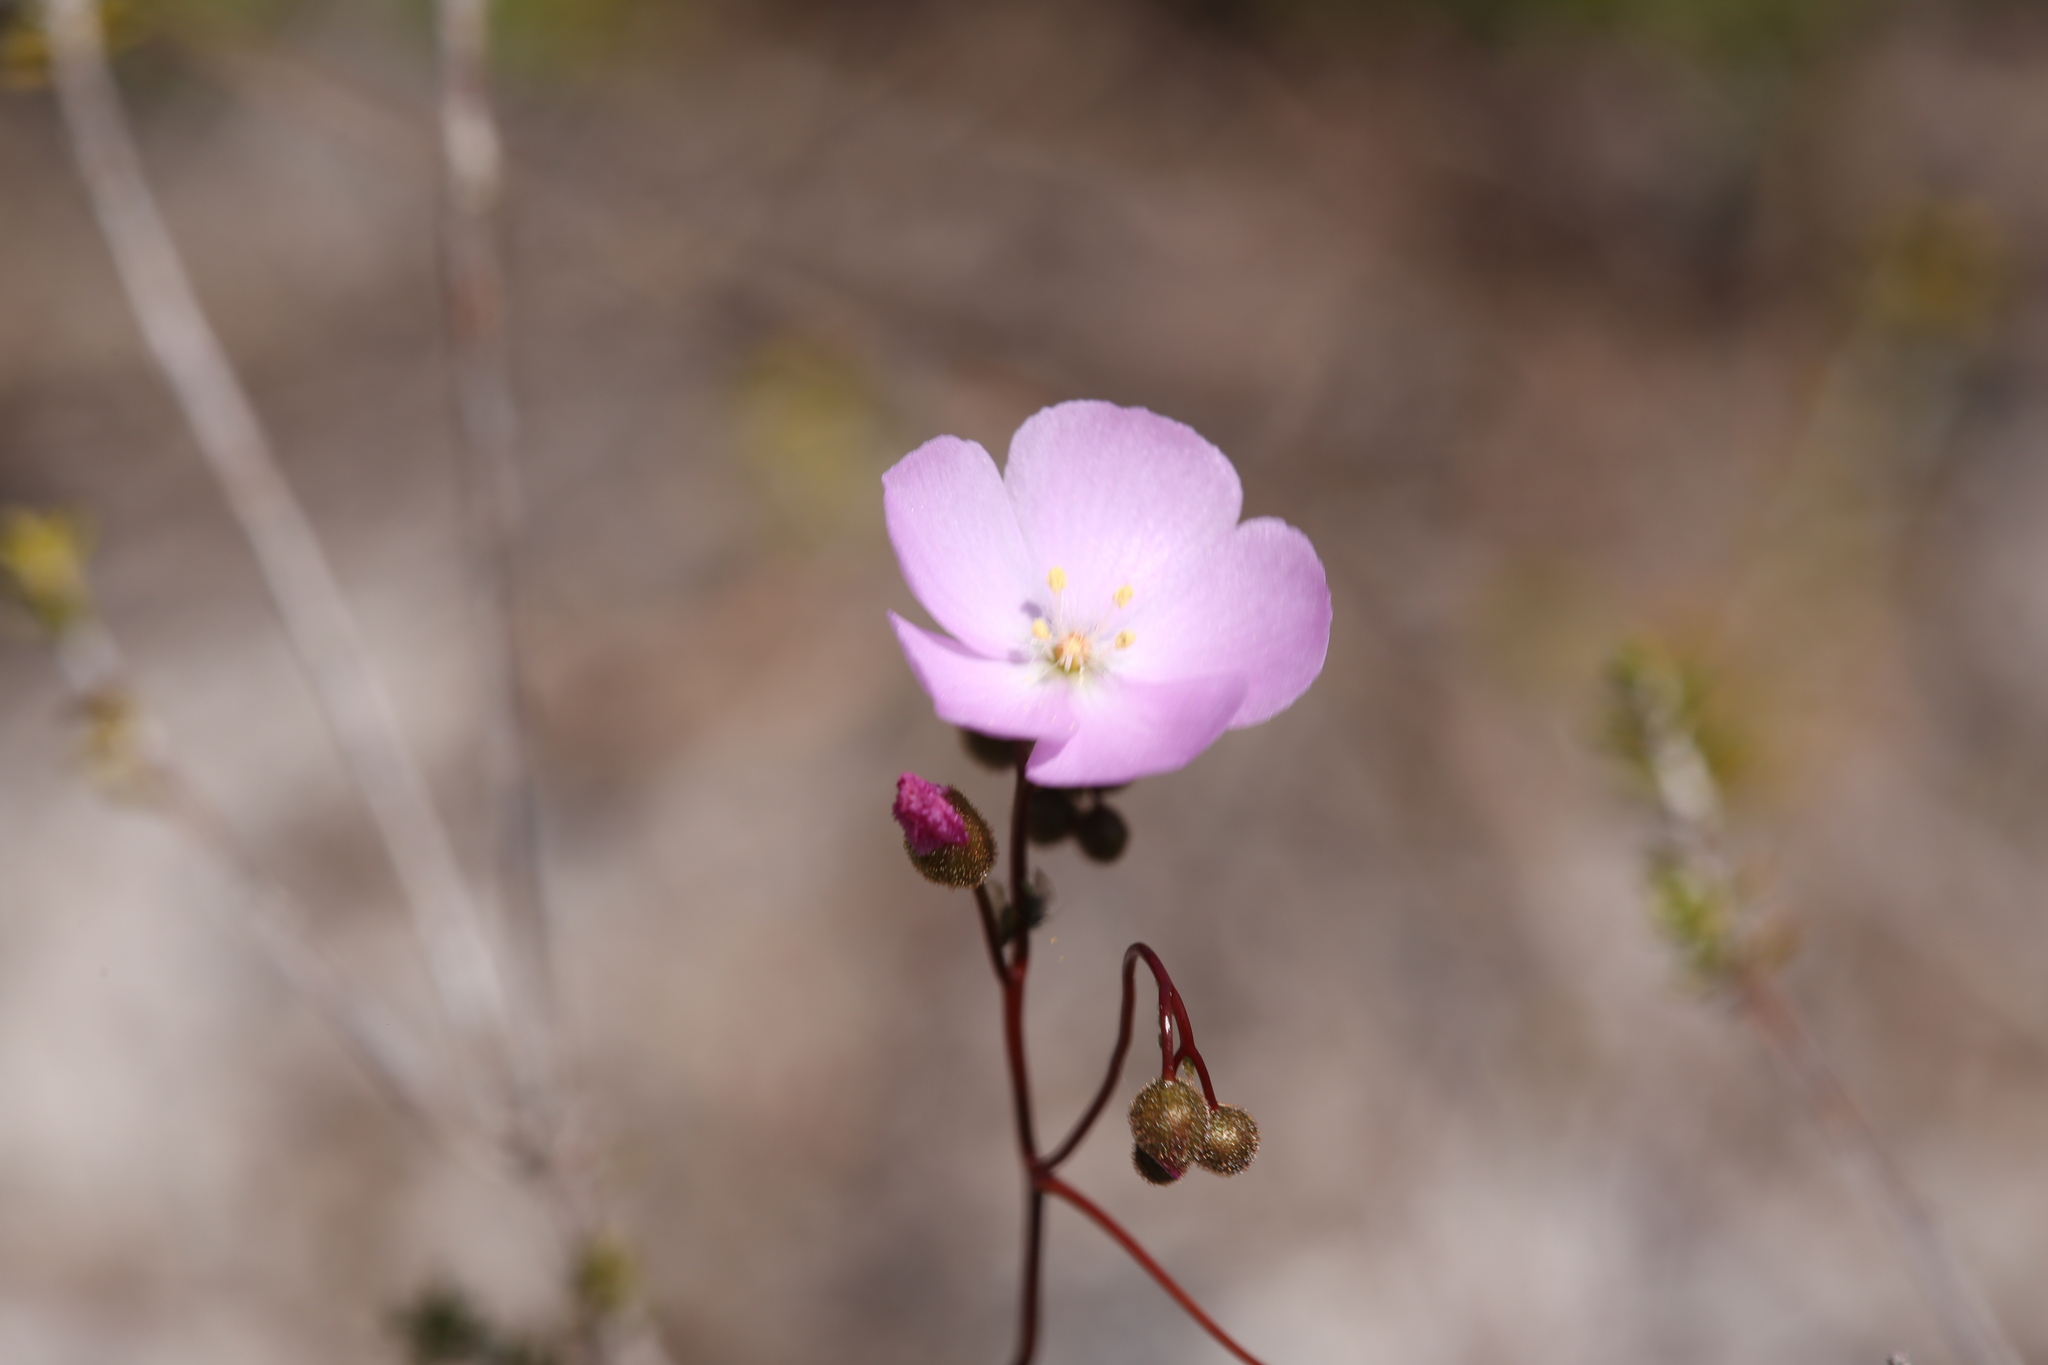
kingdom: Plantae
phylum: Tracheophyta
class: Magnoliopsida
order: Caryophyllales
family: Droseraceae
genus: Drosera
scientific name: Drosera
